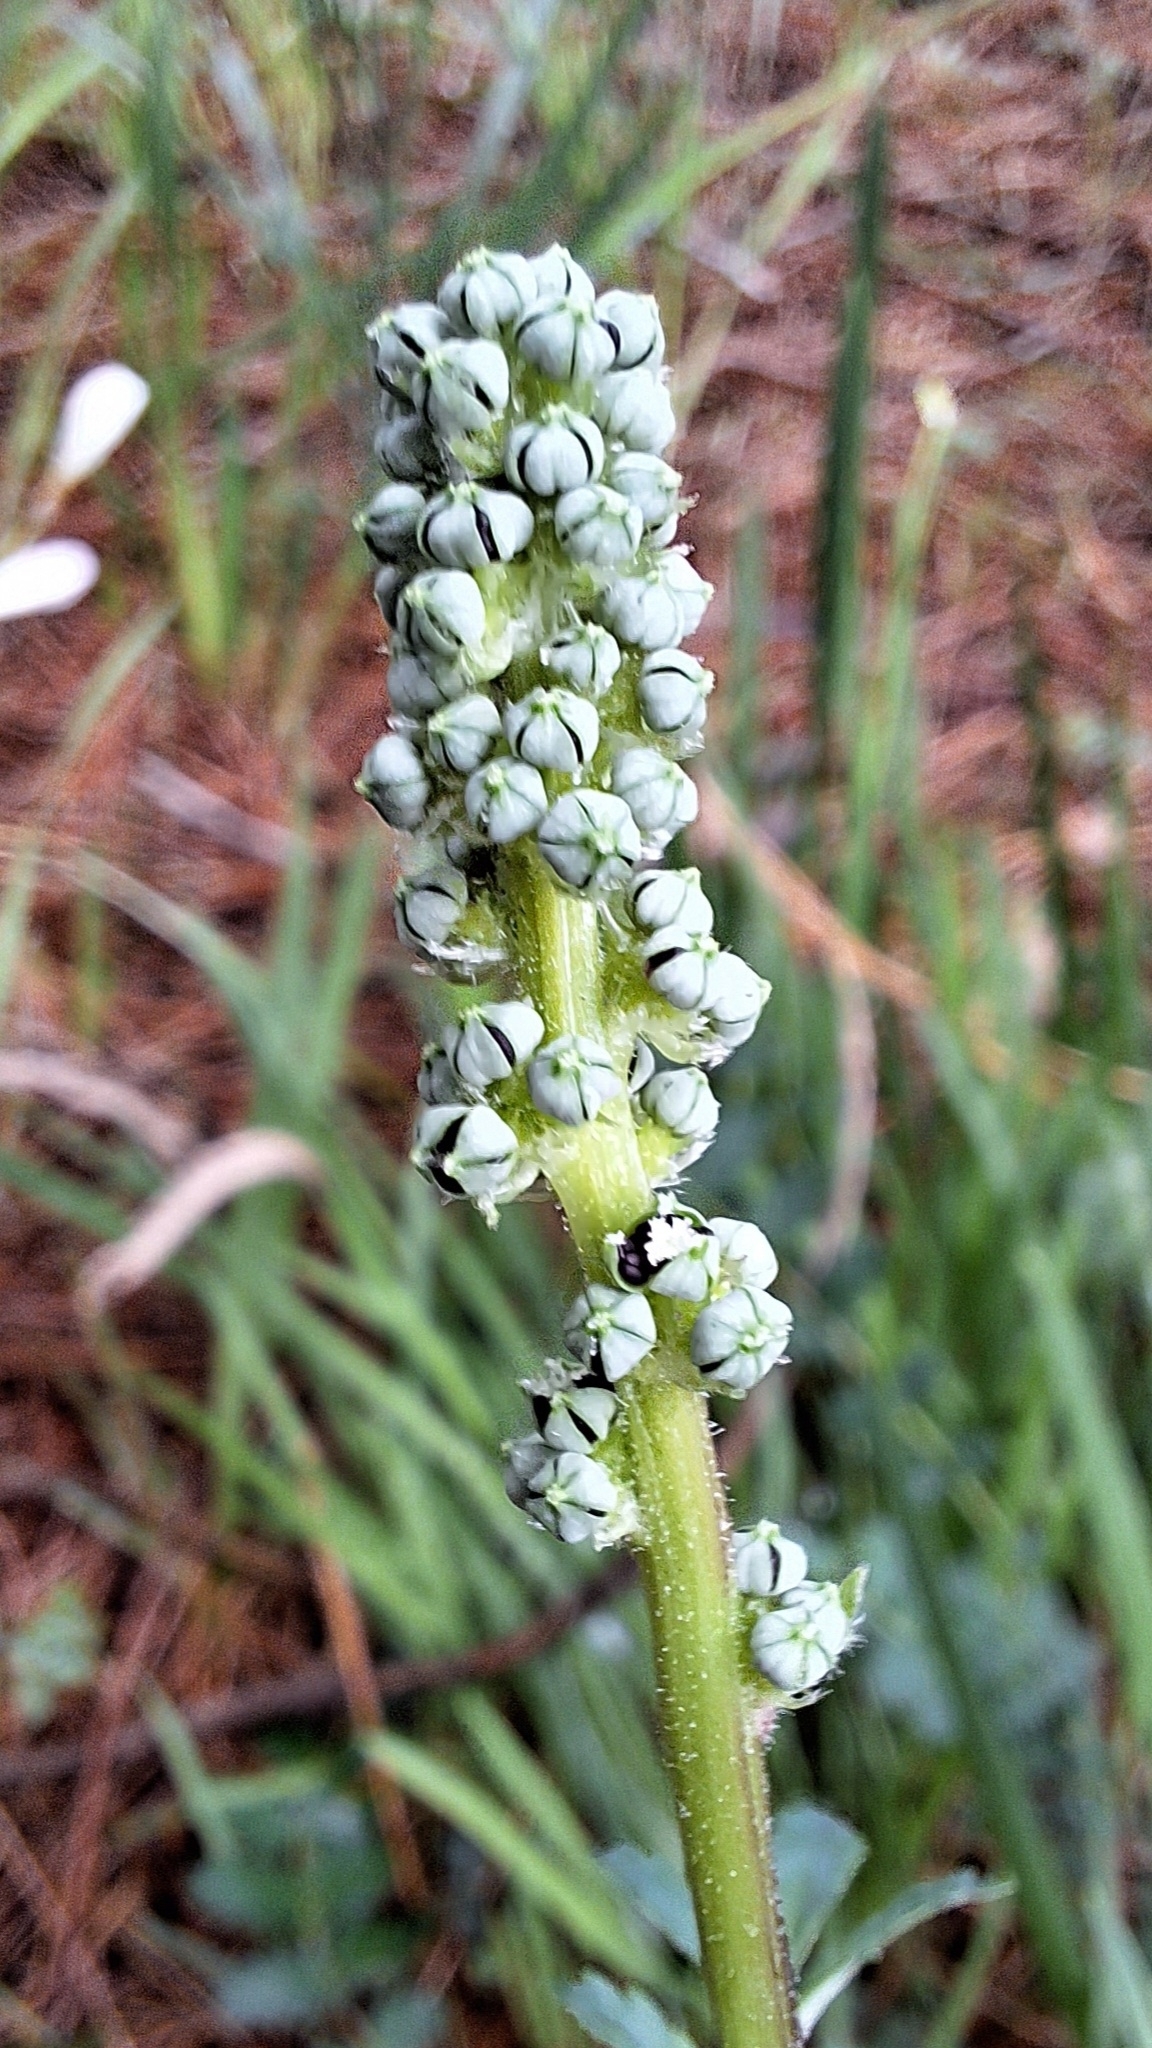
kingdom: Plantae
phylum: Tracheophyta
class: Magnoliopsida
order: Rosales
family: Rosaceae
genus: Acaena
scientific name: Acaena echinata
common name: Sheepbur
